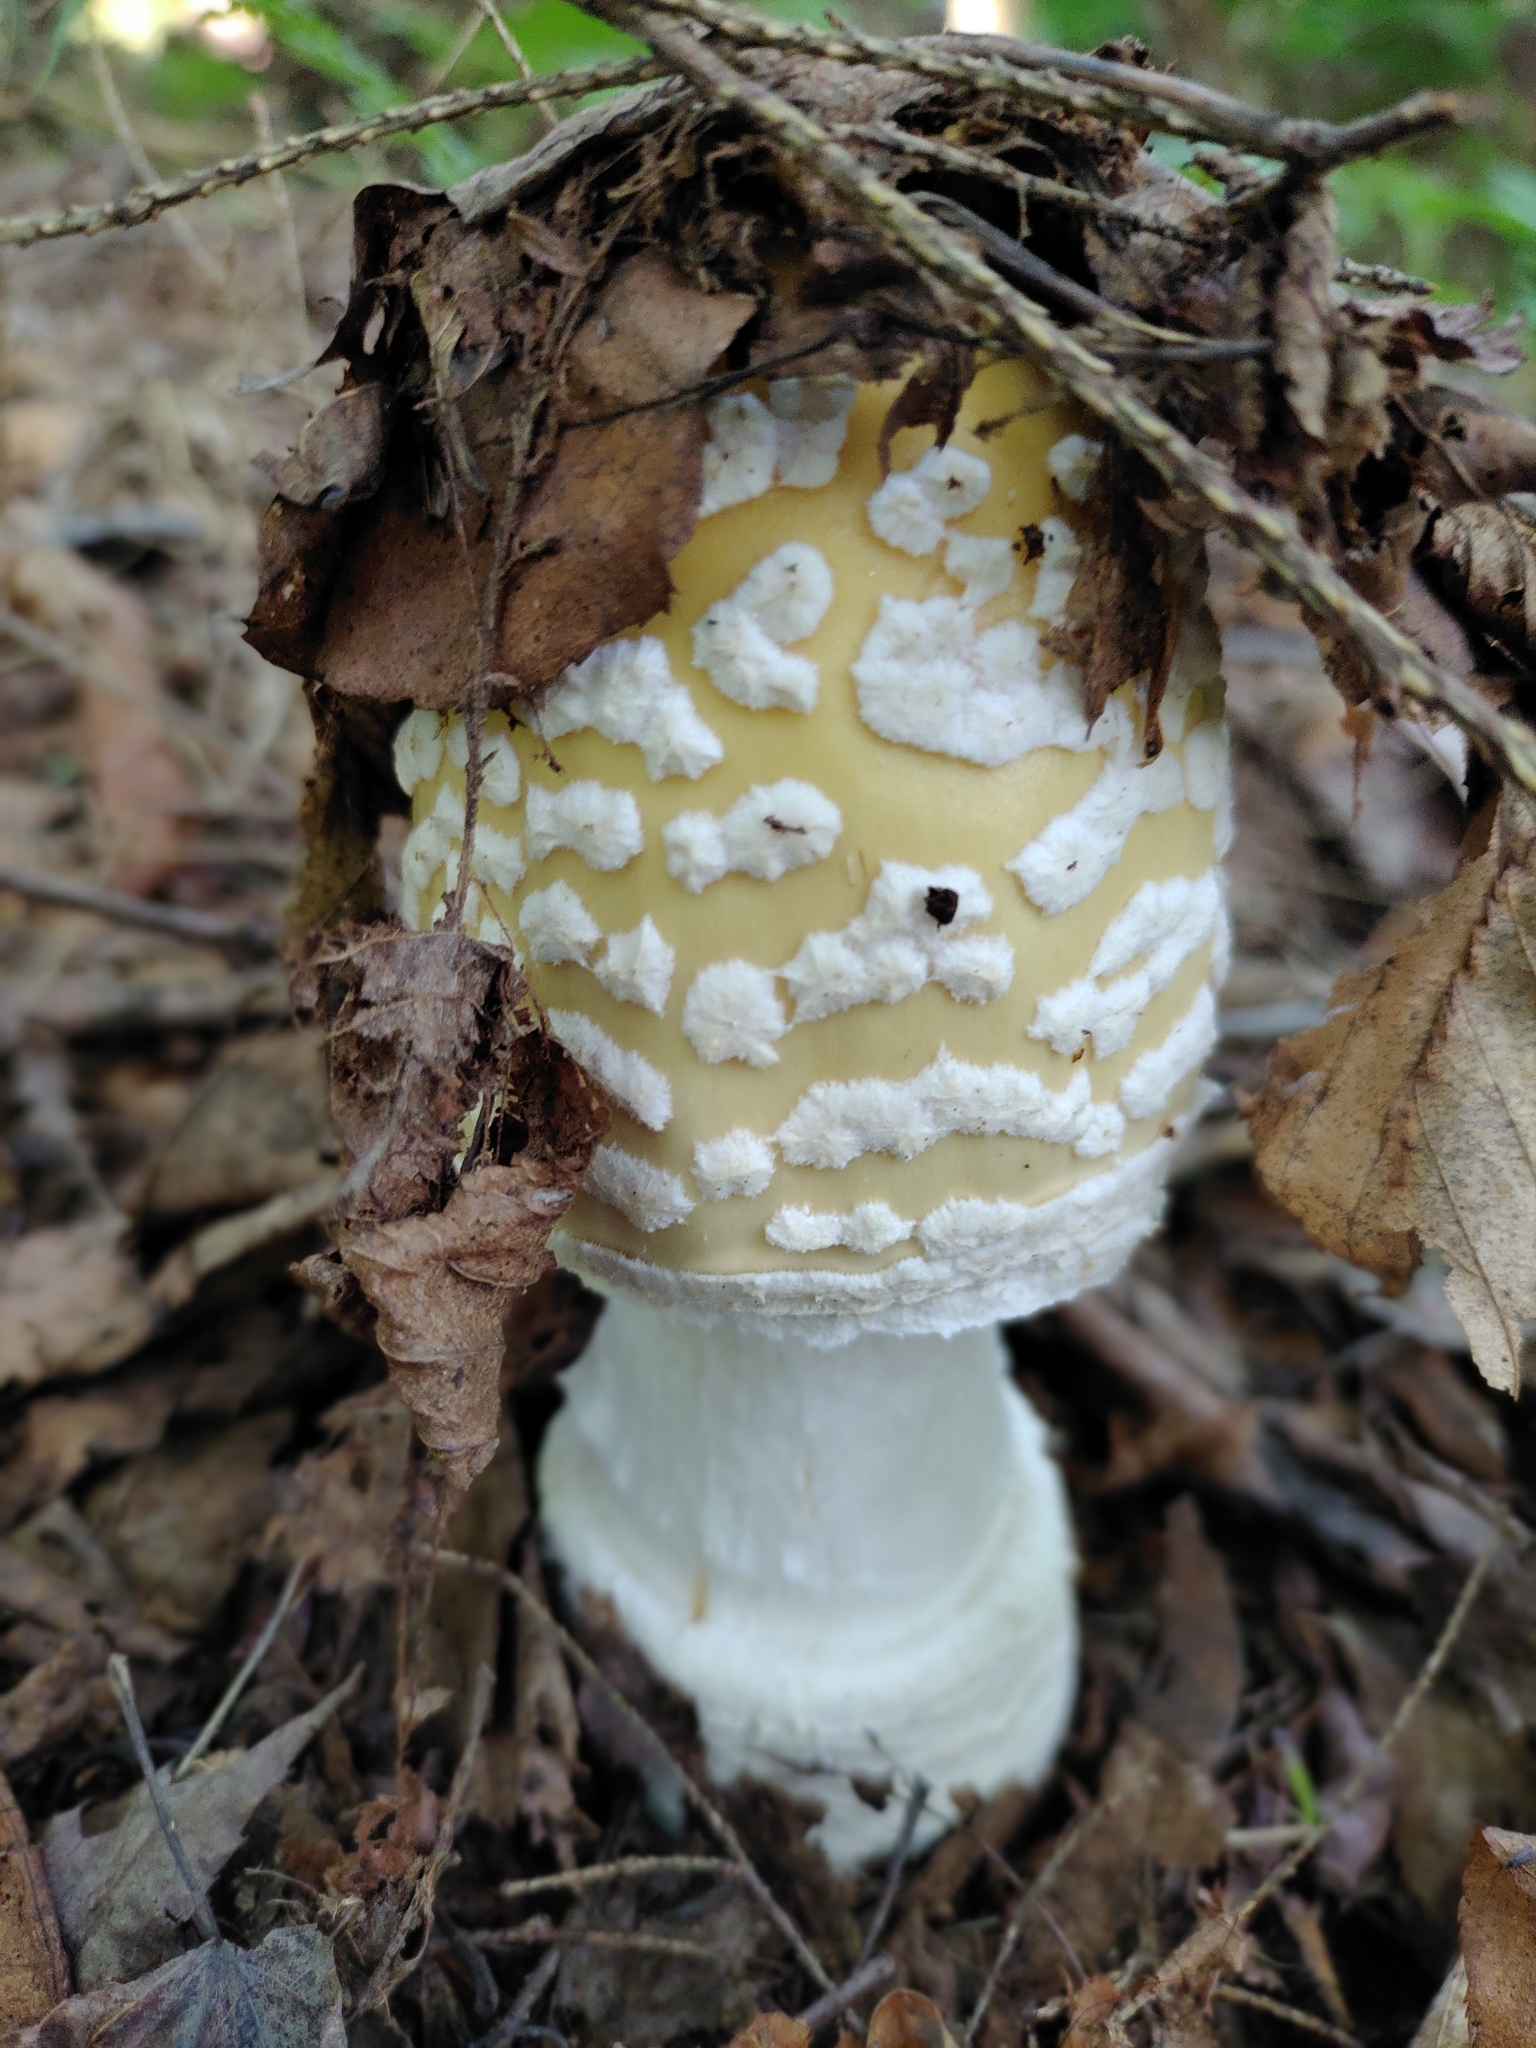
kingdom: Fungi
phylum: Basidiomycota
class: Agaricomycetes
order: Agaricales
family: Amanitaceae
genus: Amanita
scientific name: Amanita velatipes
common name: Great funnel-veil amanita
